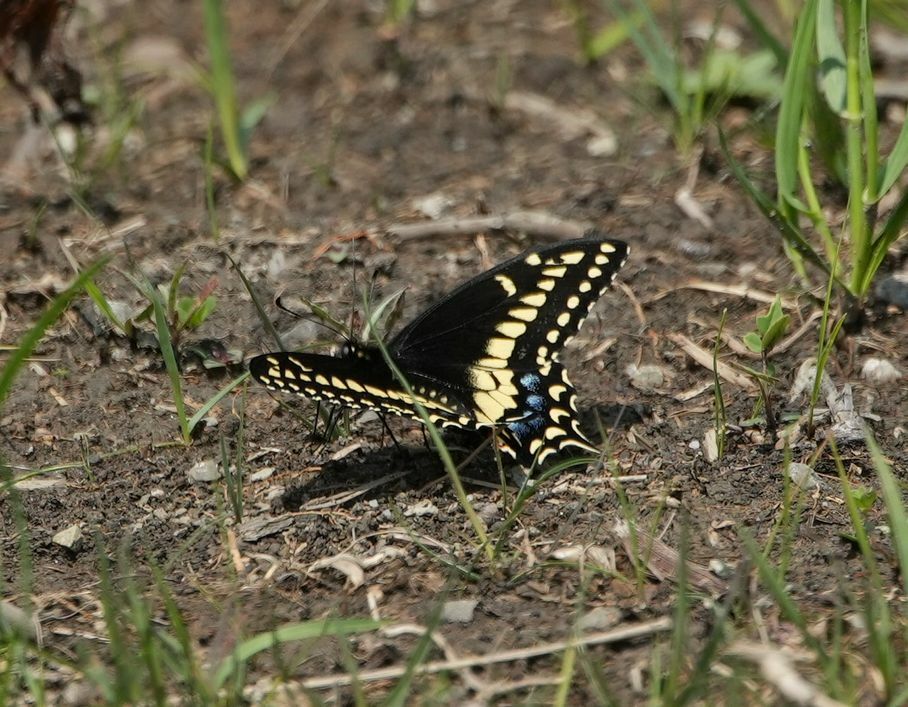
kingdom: Animalia
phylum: Arthropoda
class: Insecta
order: Lepidoptera
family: Papilionidae
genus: Papilio
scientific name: Papilio polyxenes
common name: Black swallowtail
